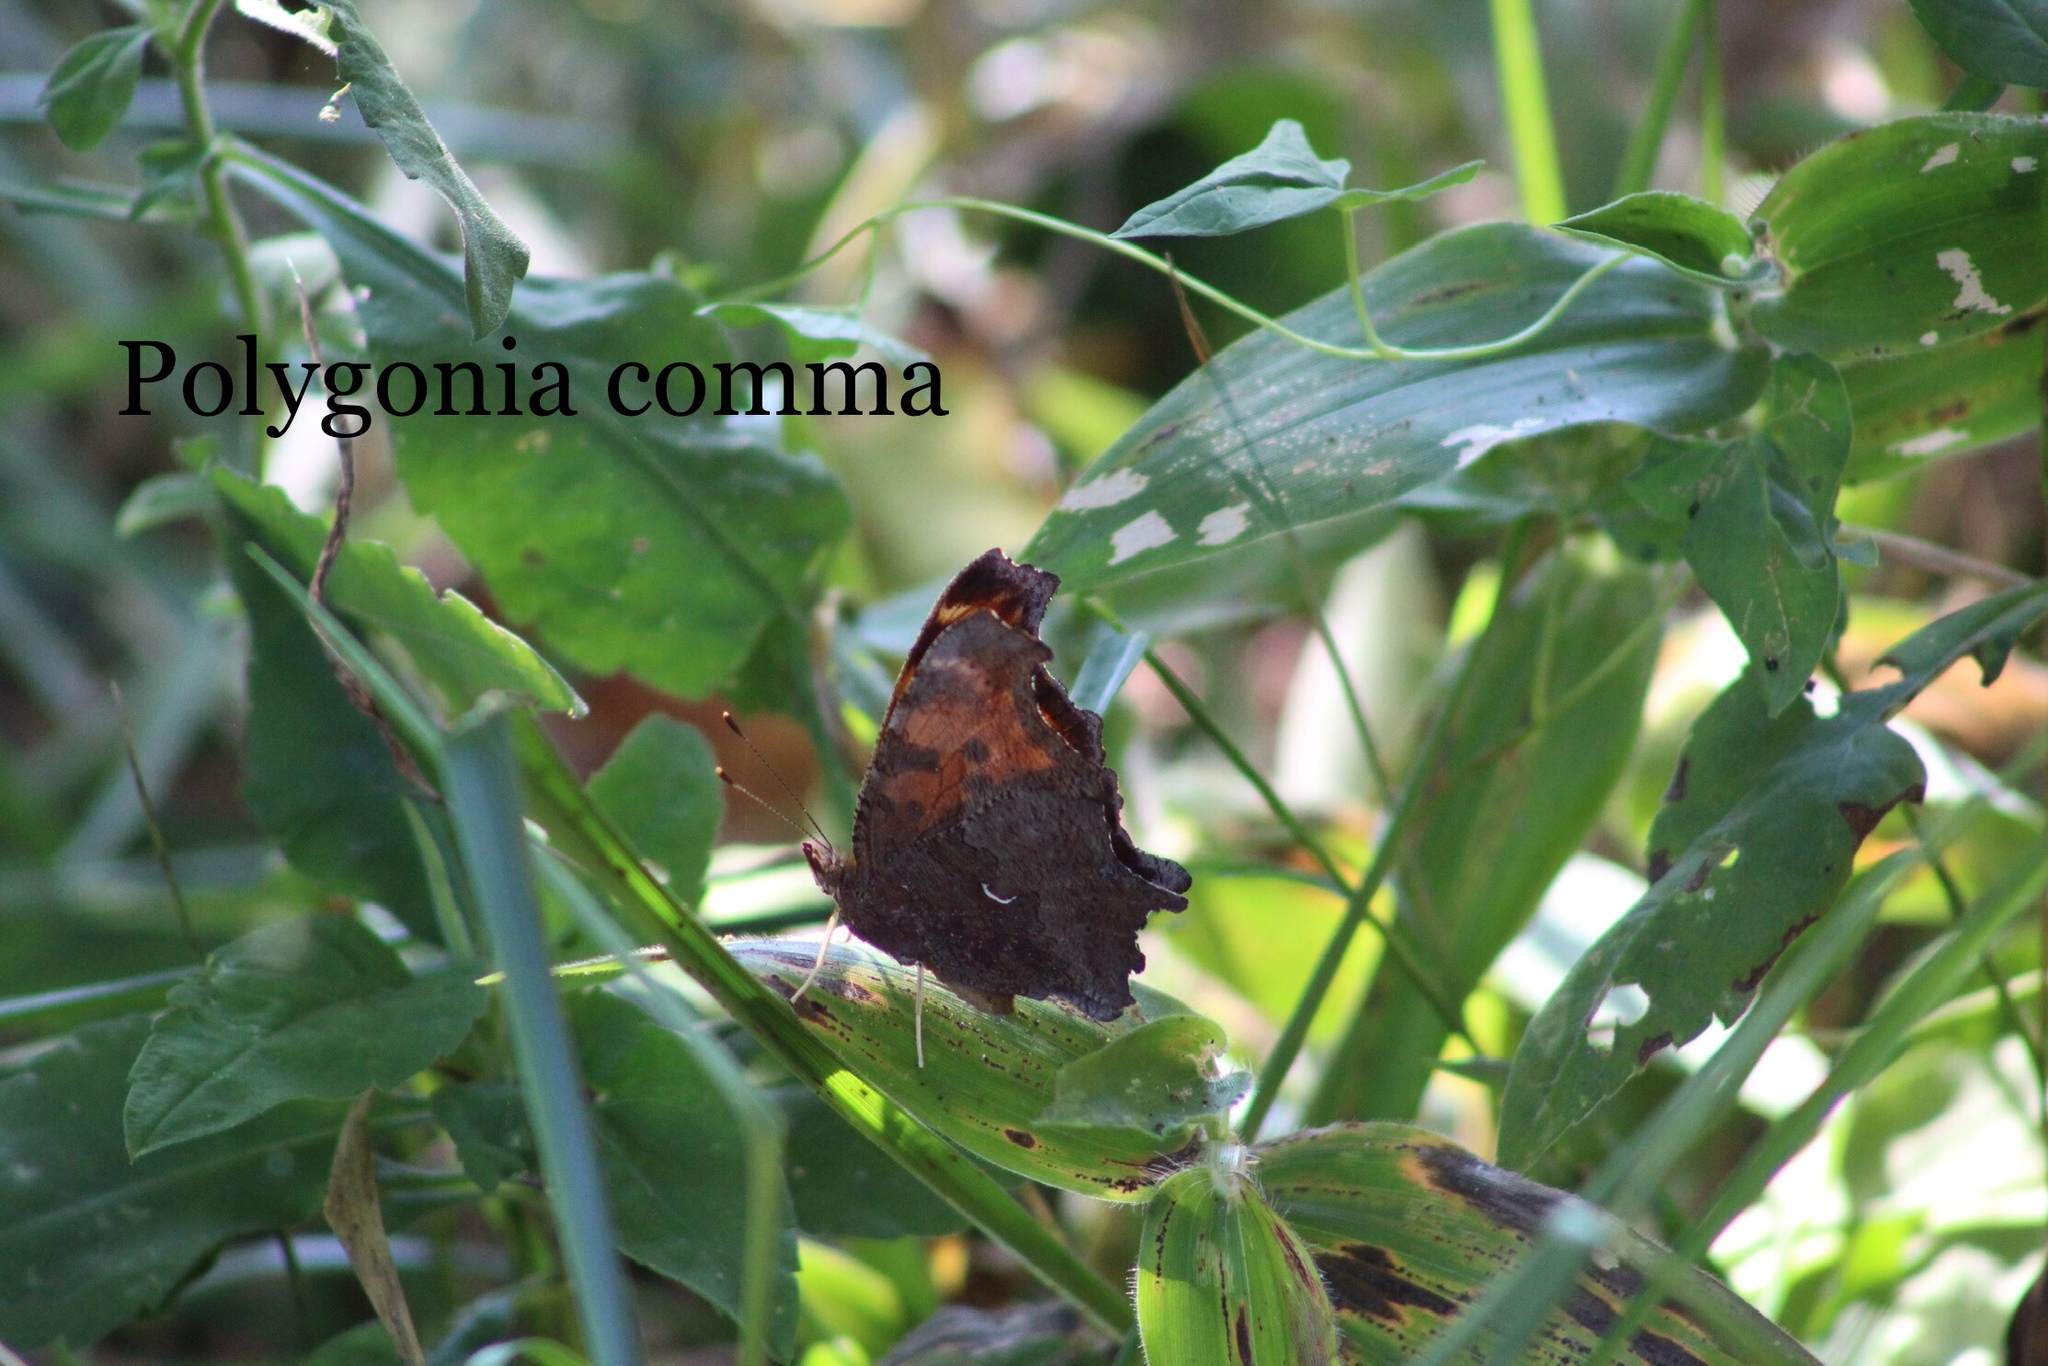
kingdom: Animalia
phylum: Arthropoda
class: Insecta
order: Lepidoptera
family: Nymphalidae
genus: Polygonia
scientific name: Polygonia comma
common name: Eastern comma
